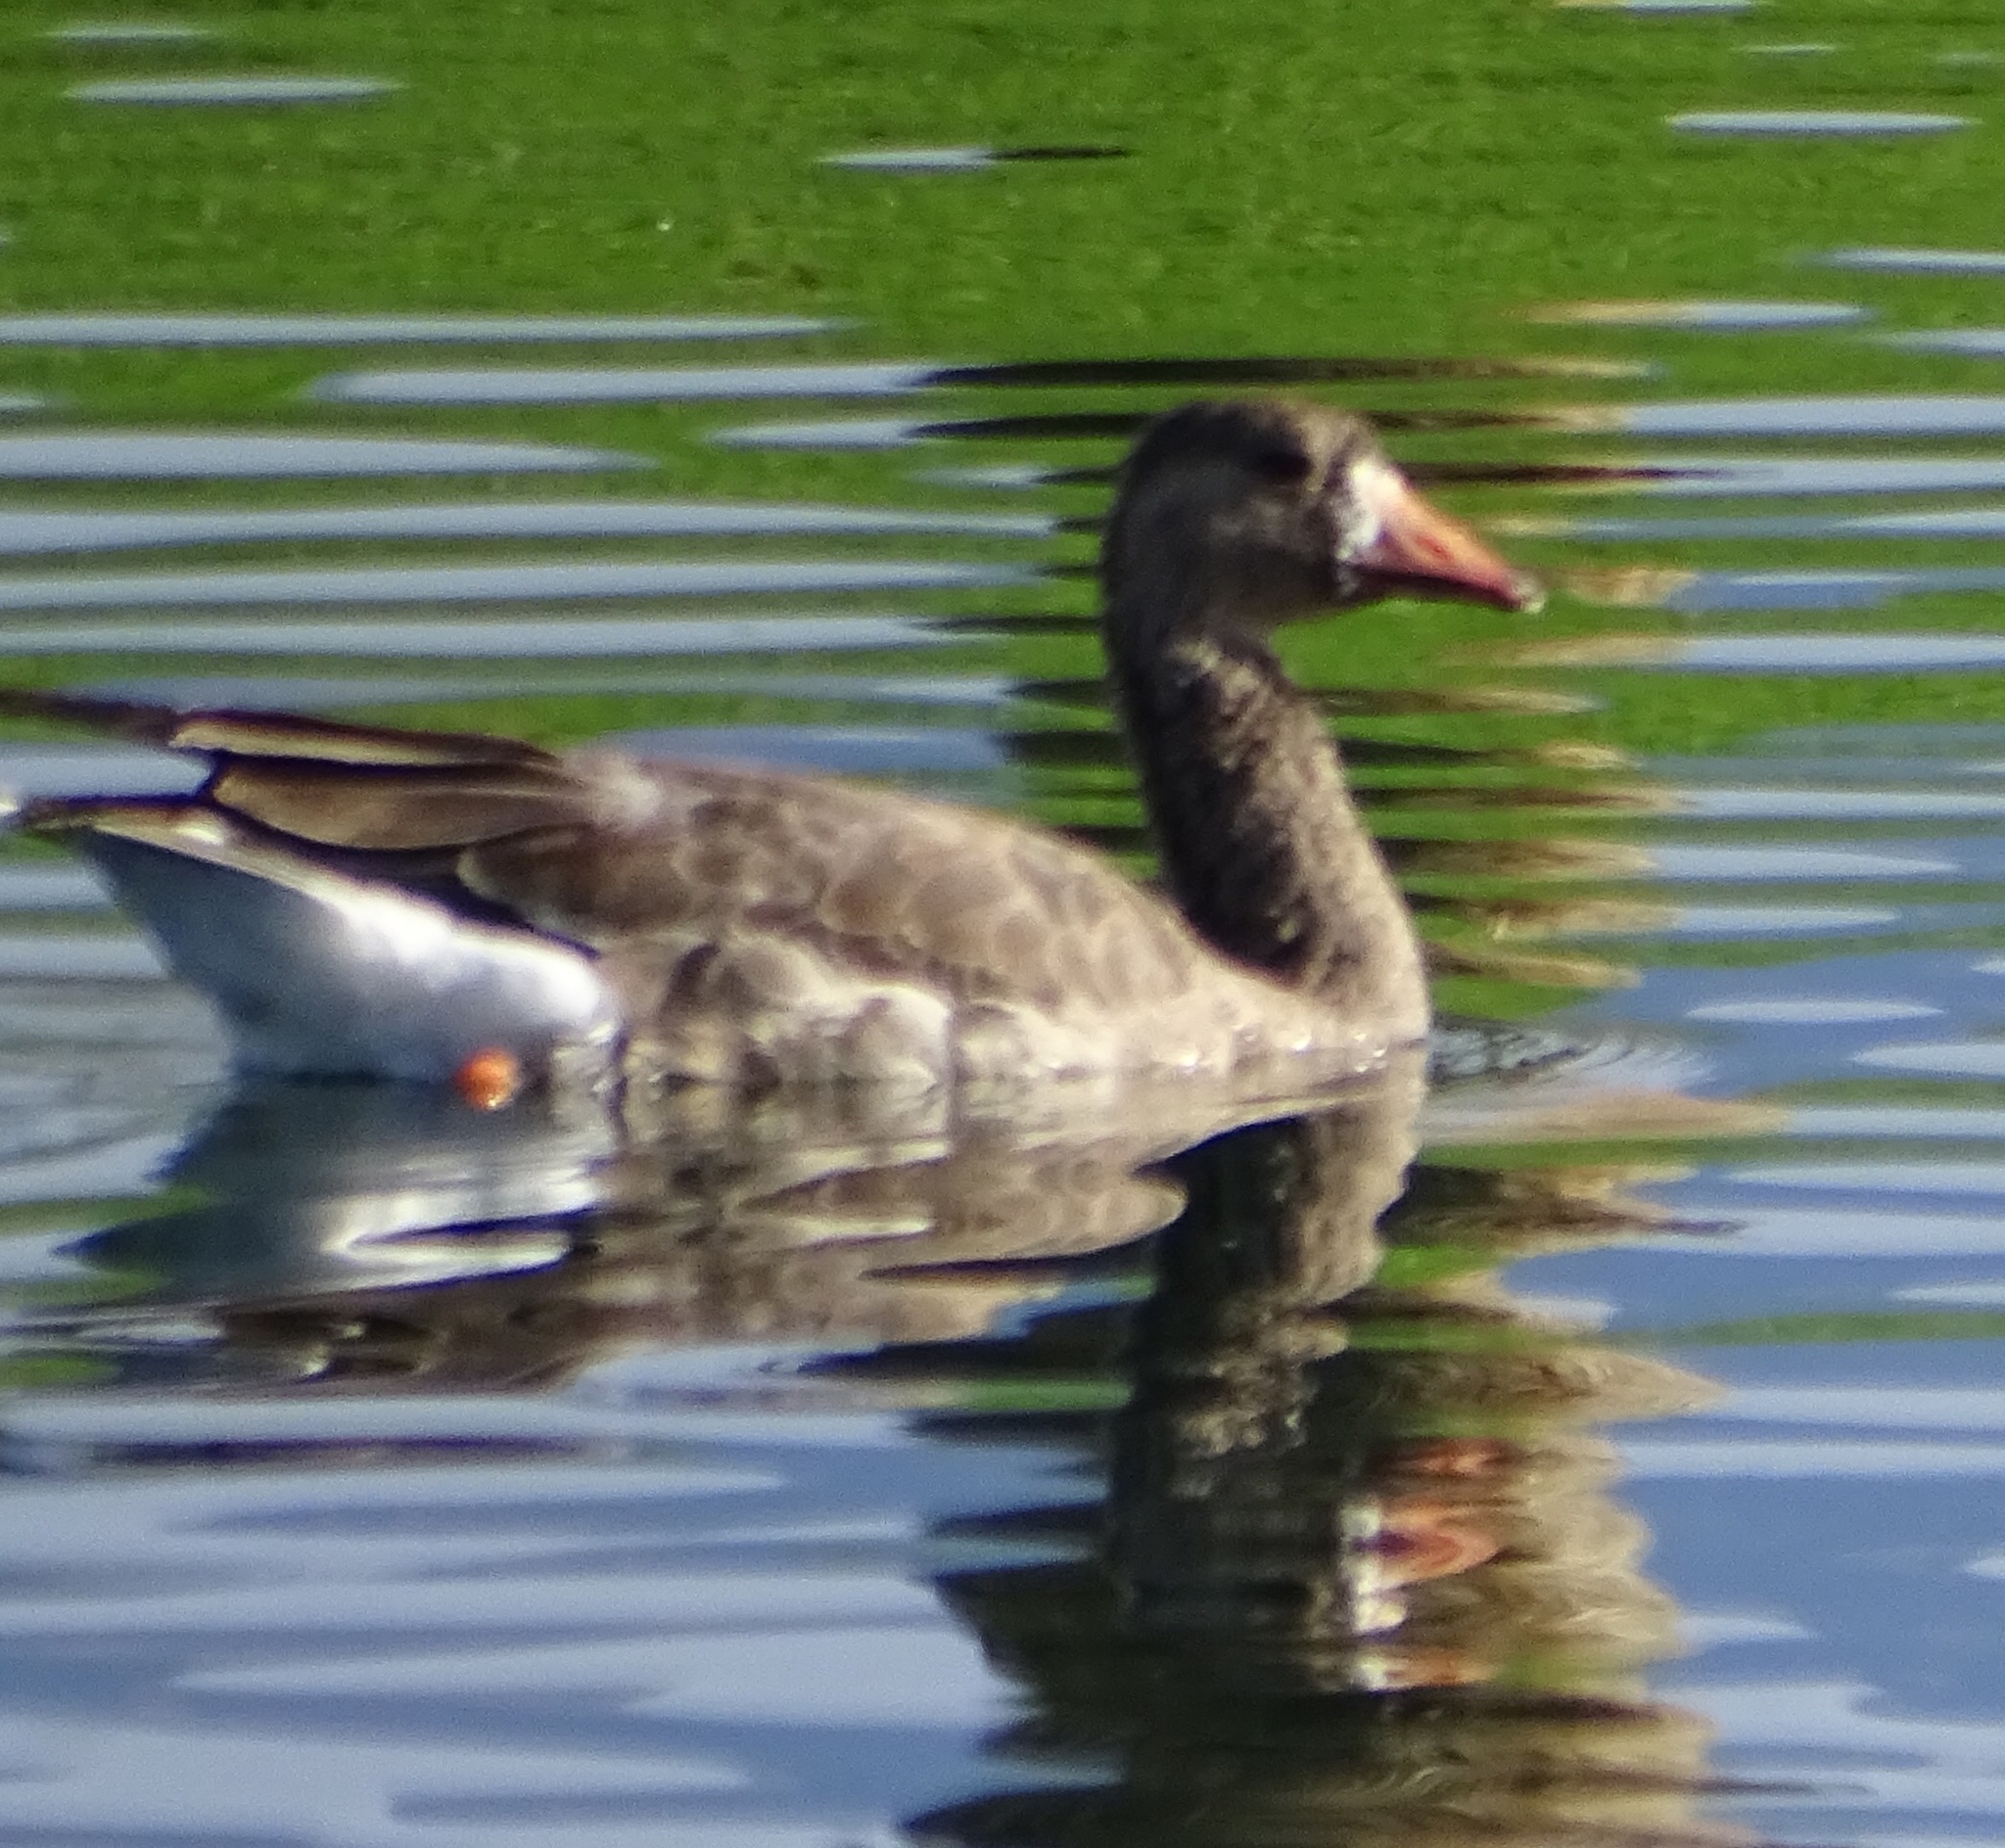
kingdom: Animalia
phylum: Chordata
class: Aves
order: Anseriformes
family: Anatidae
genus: Anser
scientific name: Anser albifrons
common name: Greater white-fronted goose
